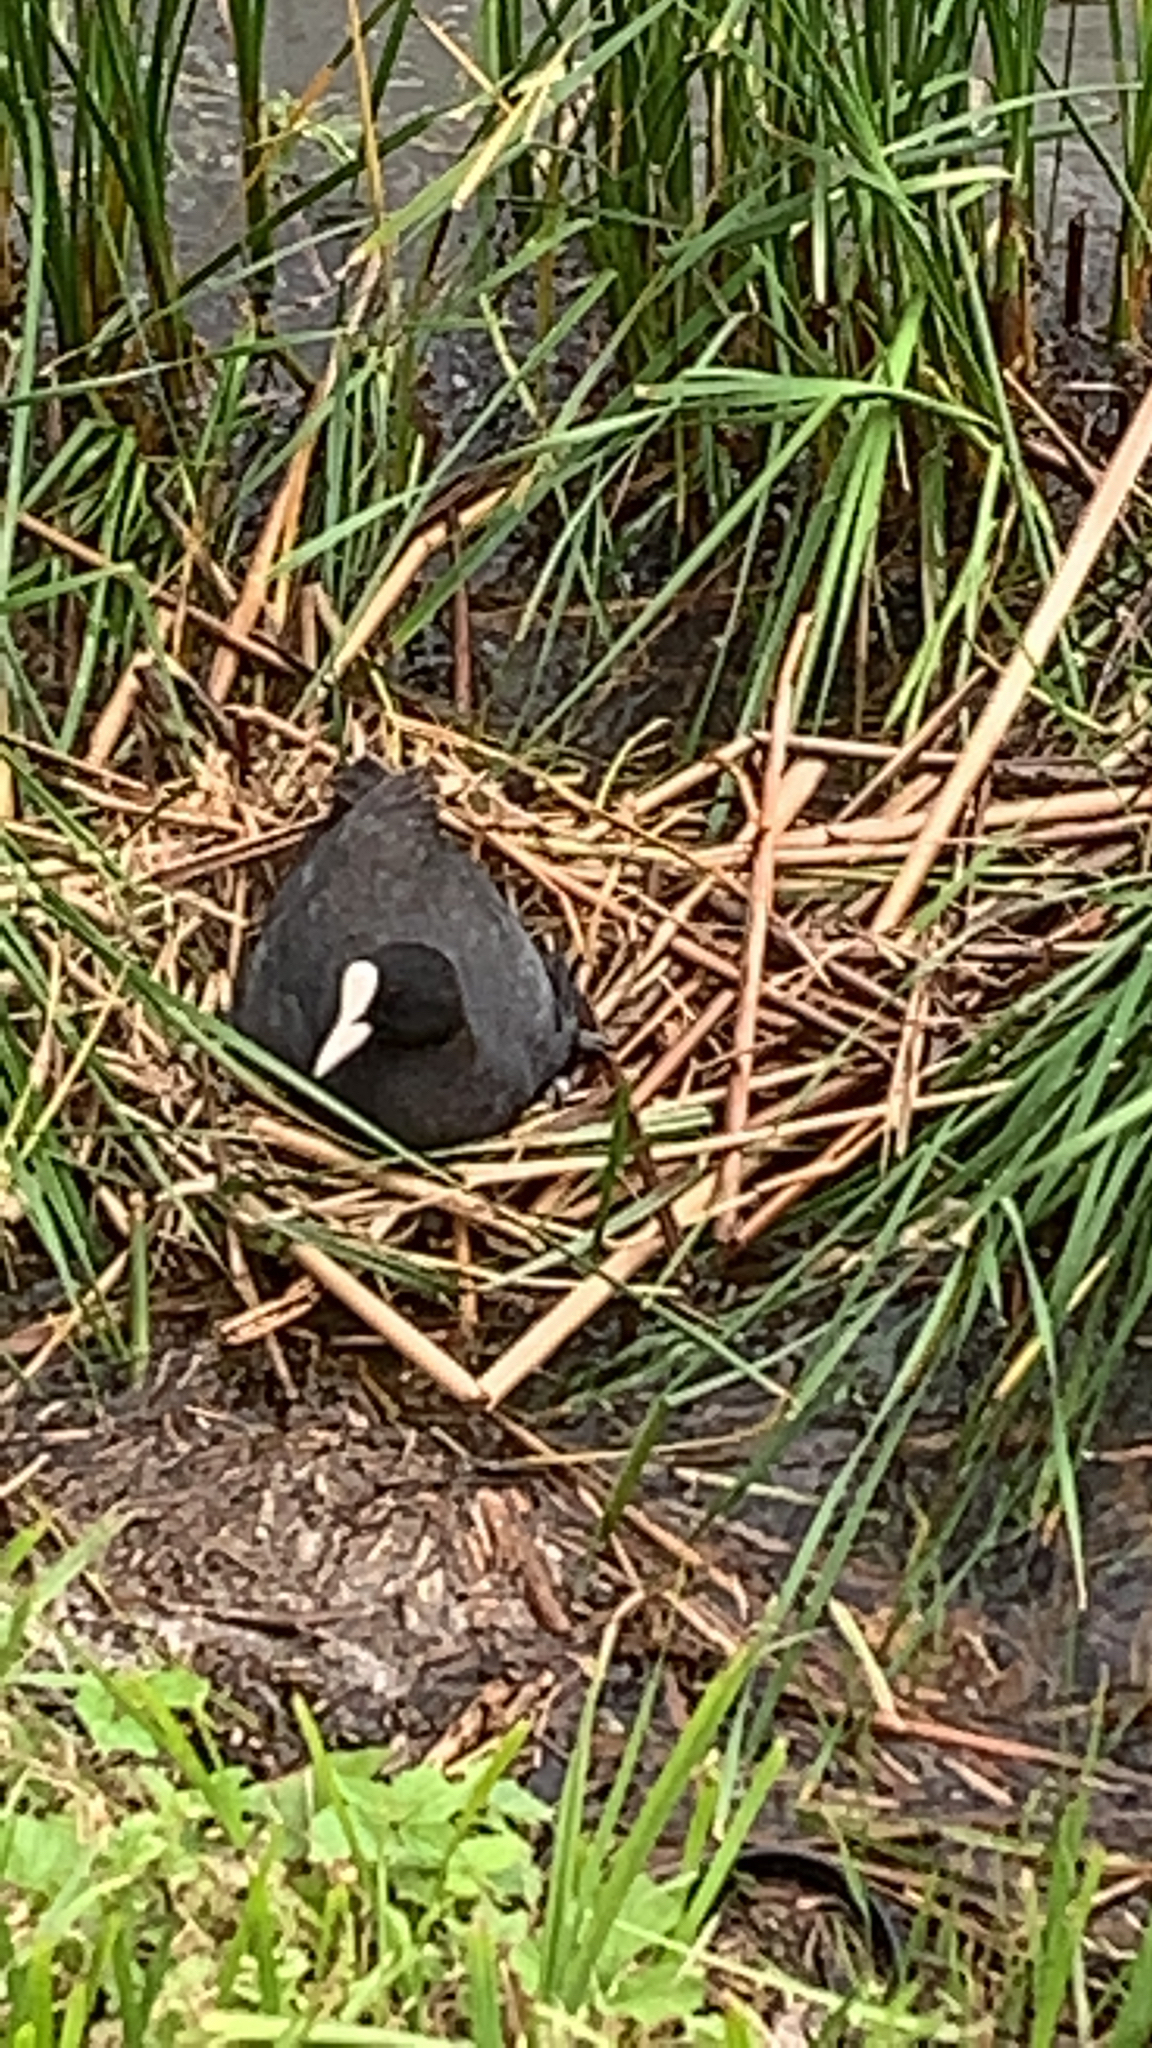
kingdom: Animalia
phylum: Chordata
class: Aves
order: Gruiformes
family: Rallidae
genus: Fulica
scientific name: Fulica atra
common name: Eurasian coot
